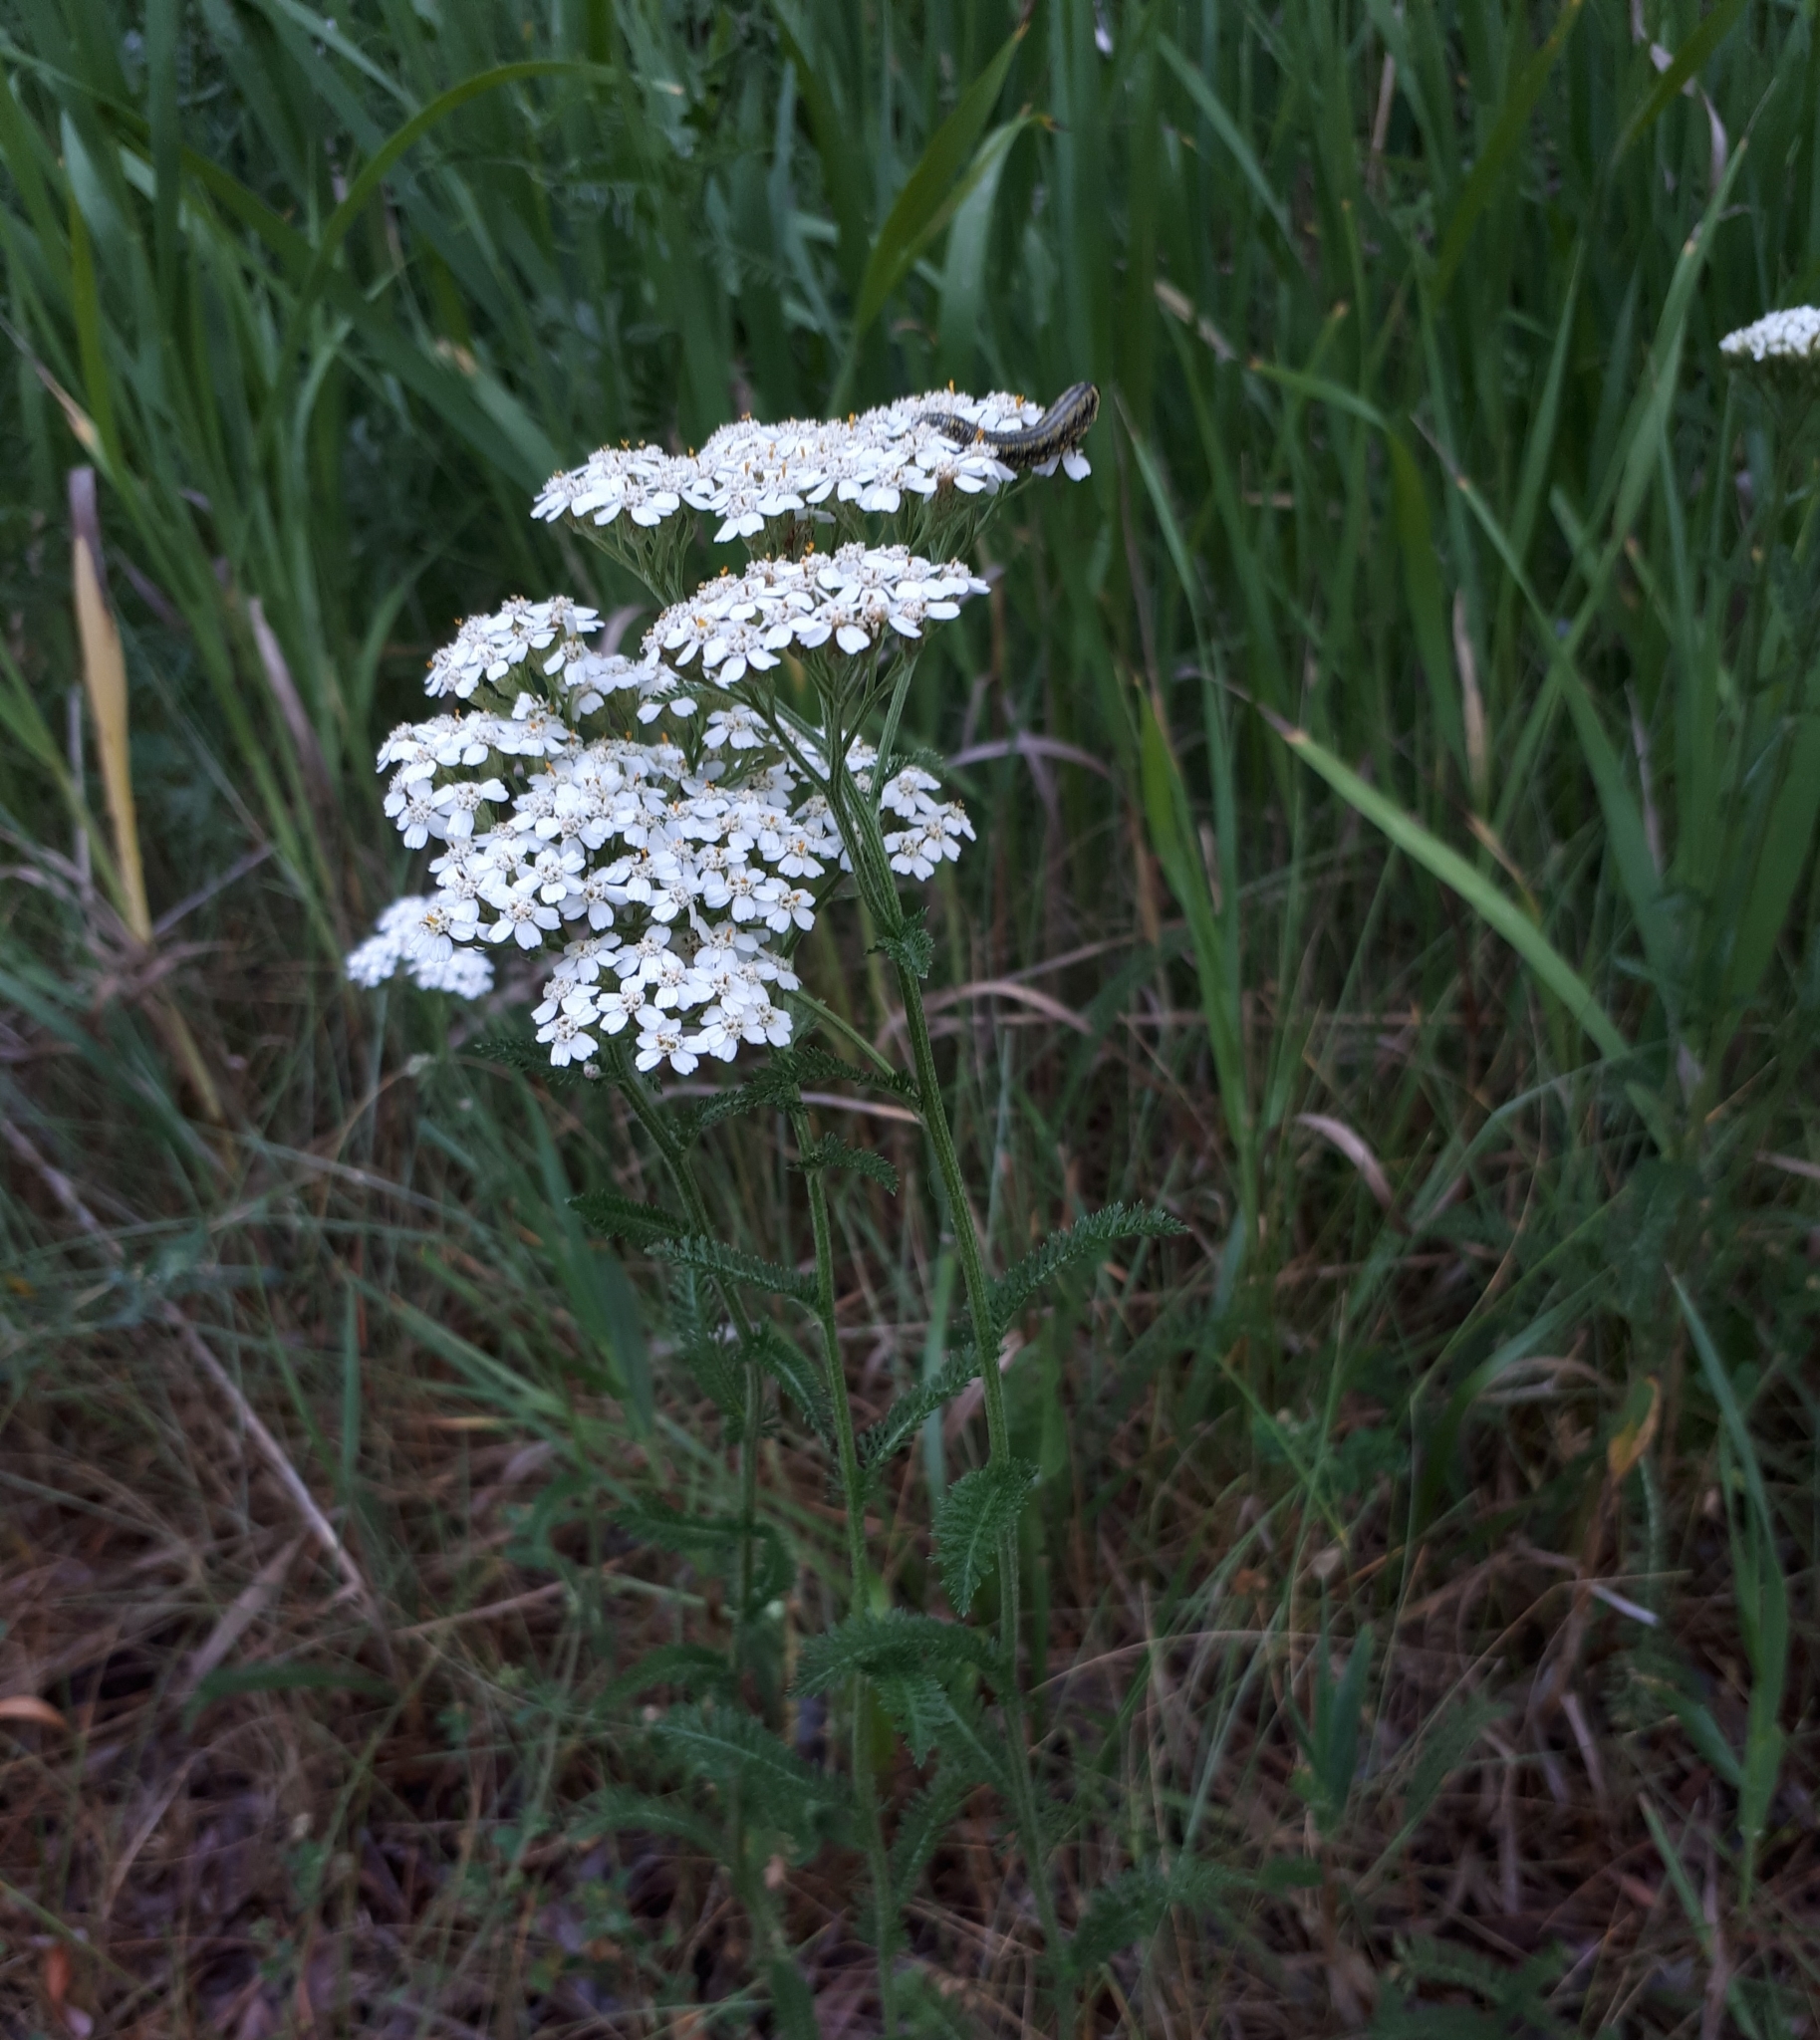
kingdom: Plantae
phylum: Tracheophyta
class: Magnoliopsida
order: Asterales
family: Asteraceae
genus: Achillea
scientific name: Achillea millefolium
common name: Yarrow
